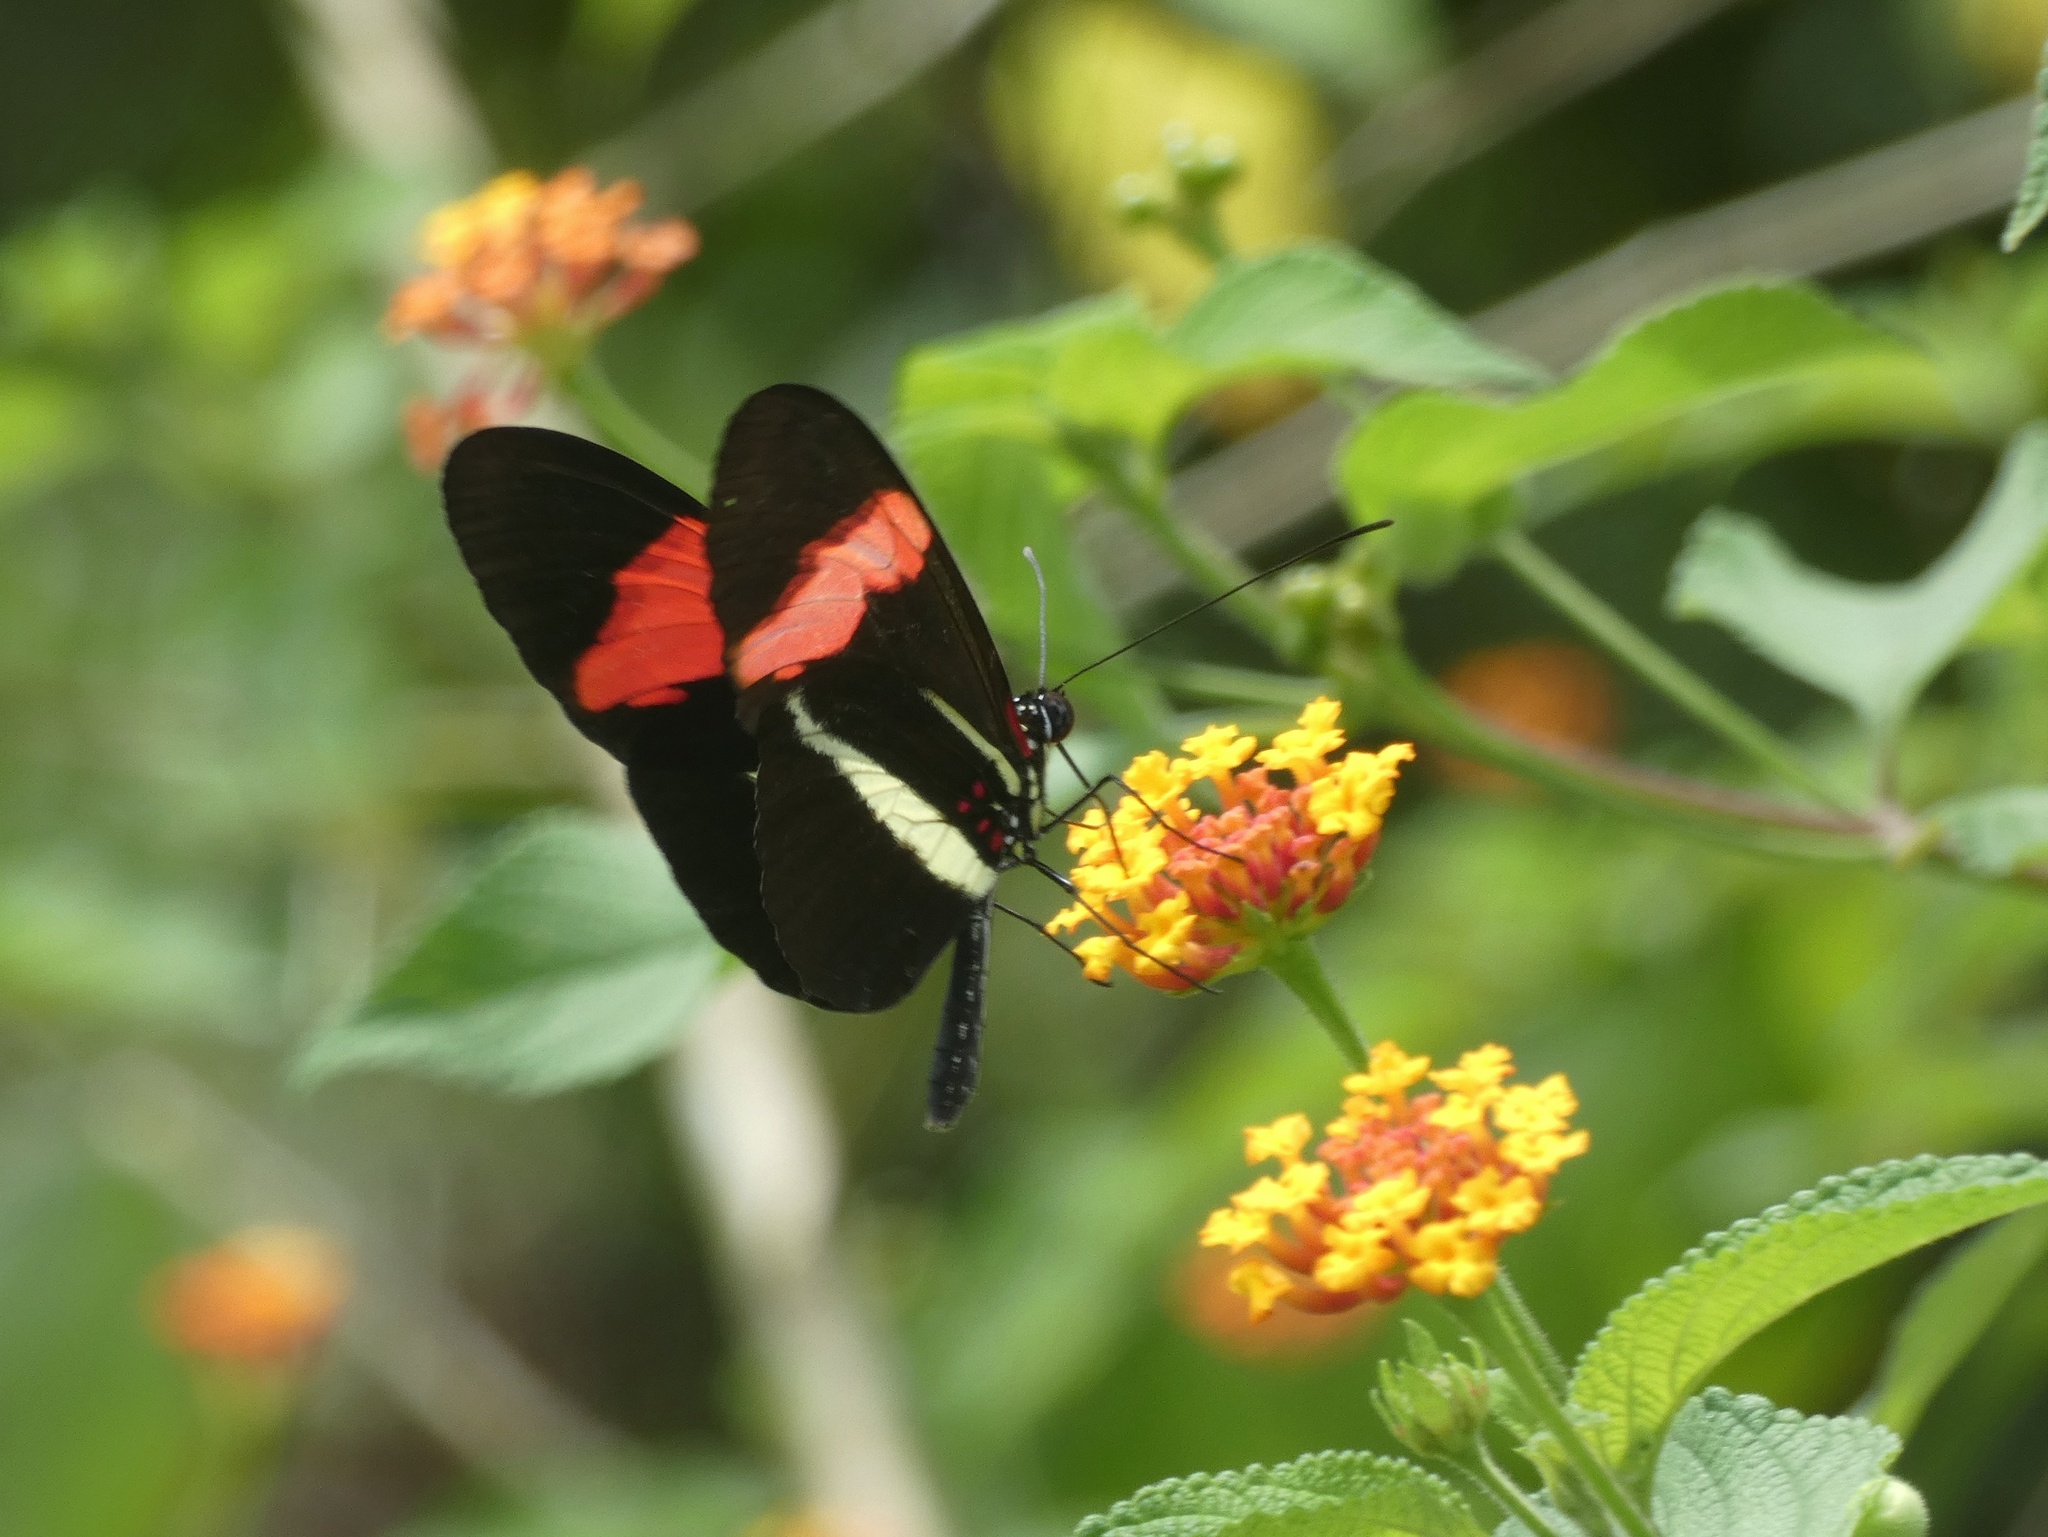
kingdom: Animalia
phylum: Arthropoda
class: Insecta
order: Lepidoptera
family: Nymphalidae
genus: Tirumala
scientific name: Tirumala petiverana
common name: Blue monarch
